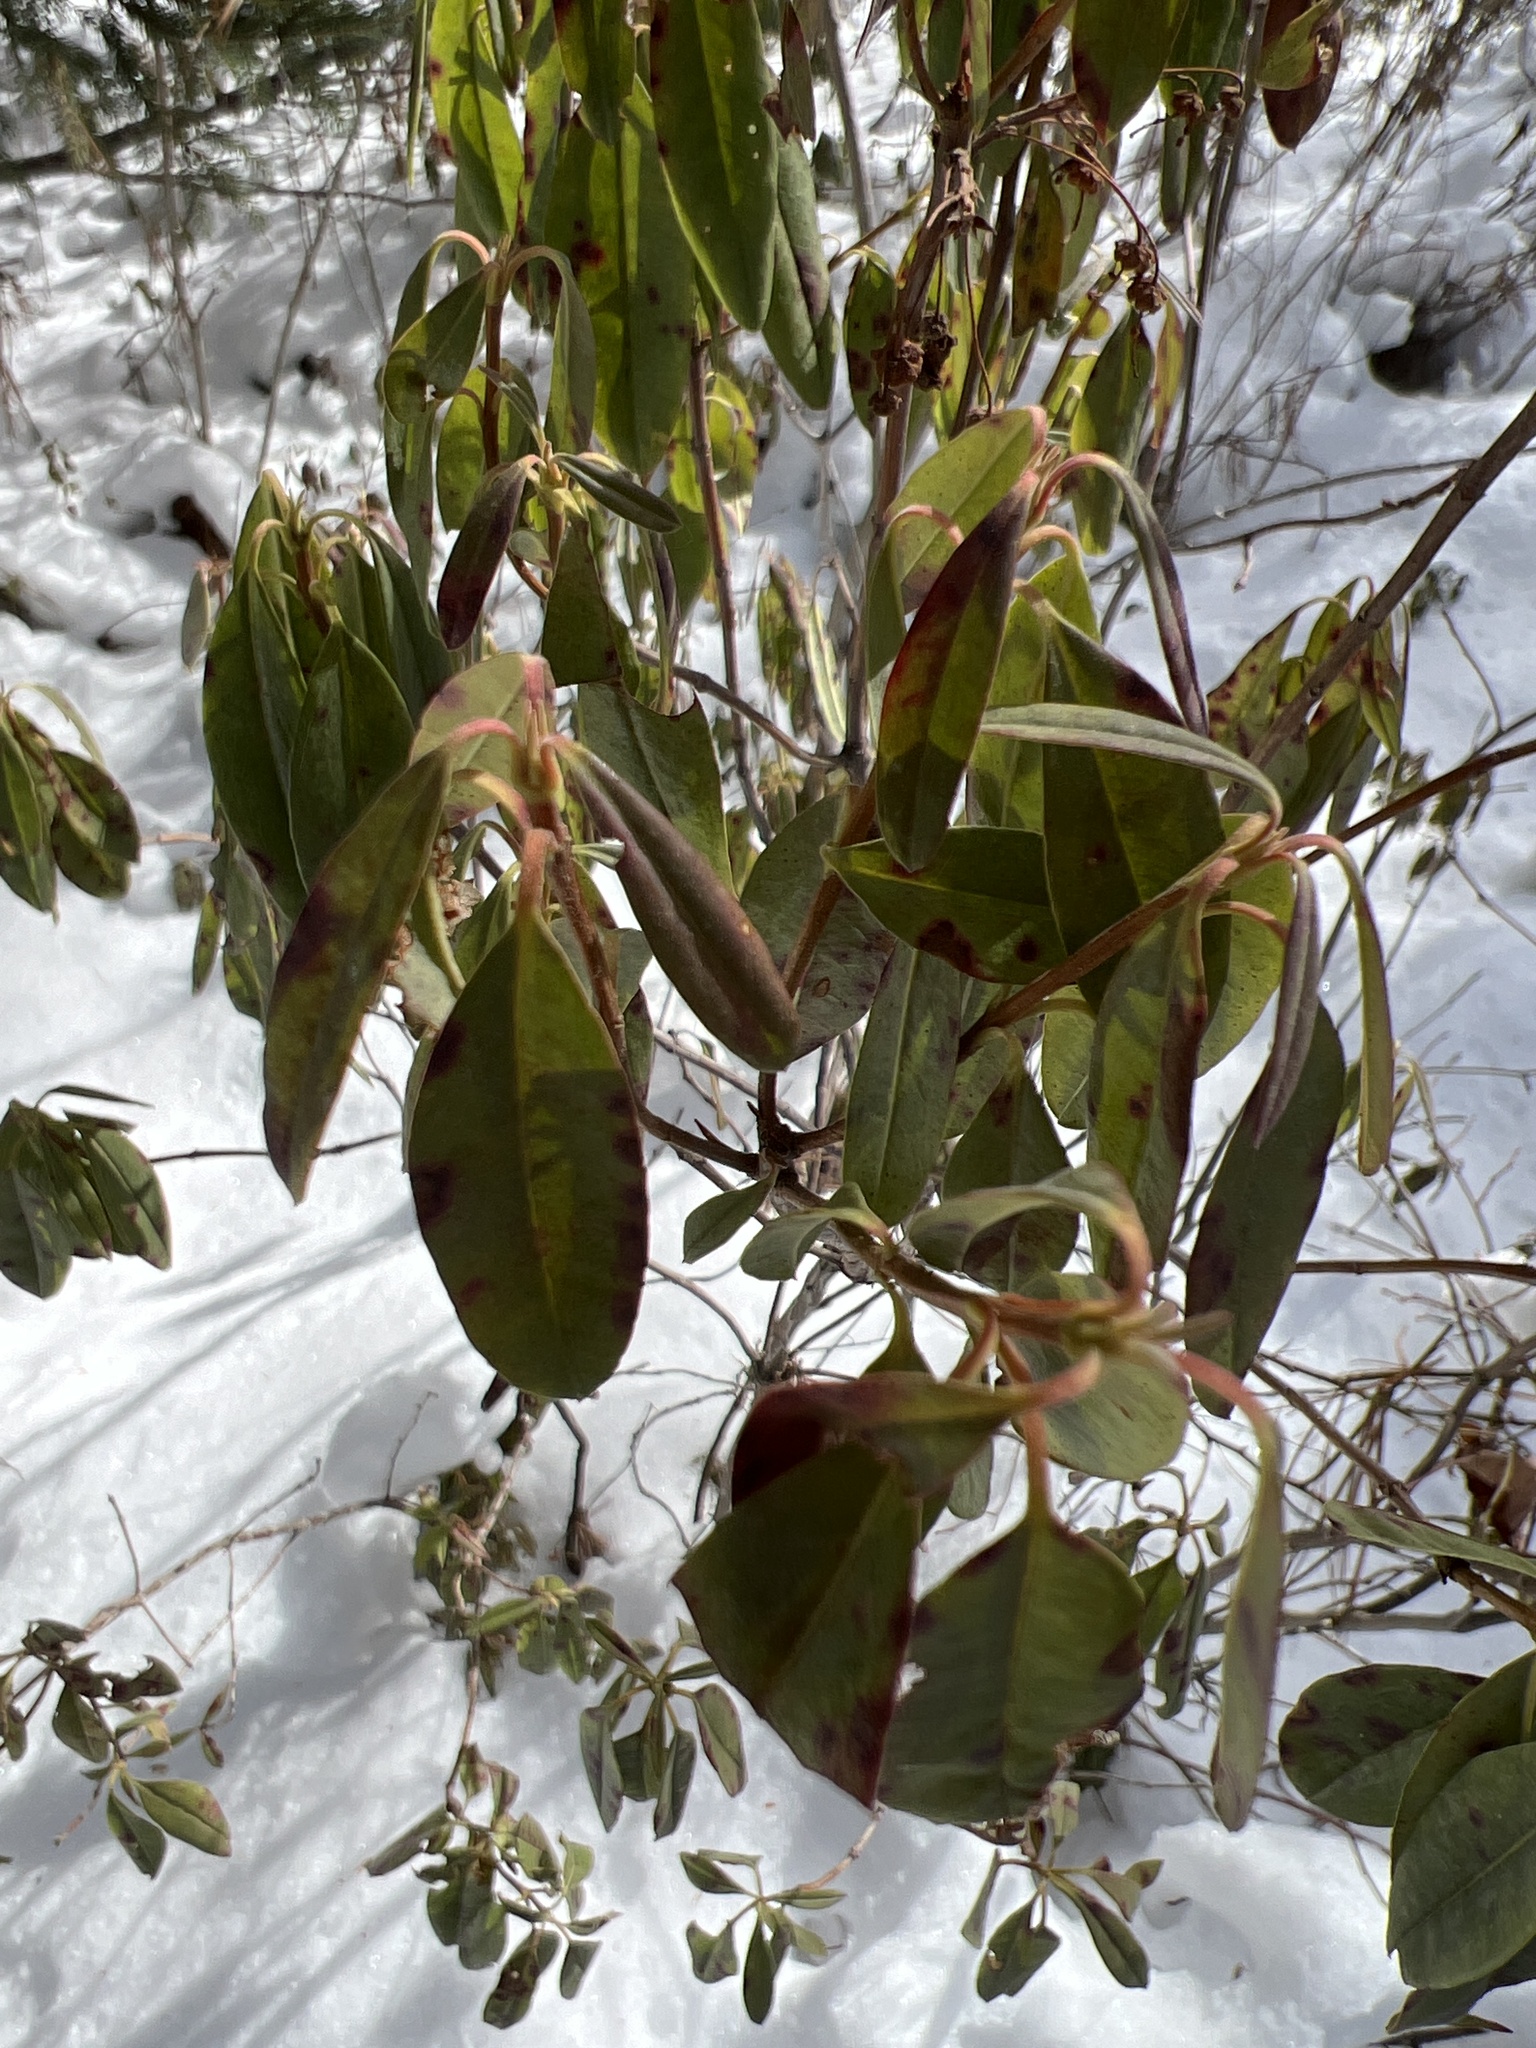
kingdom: Plantae
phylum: Tracheophyta
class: Magnoliopsida
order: Ericales
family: Ericaceae
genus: Kalmia
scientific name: Kalmia angustifolia
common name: Sheep-laurel
